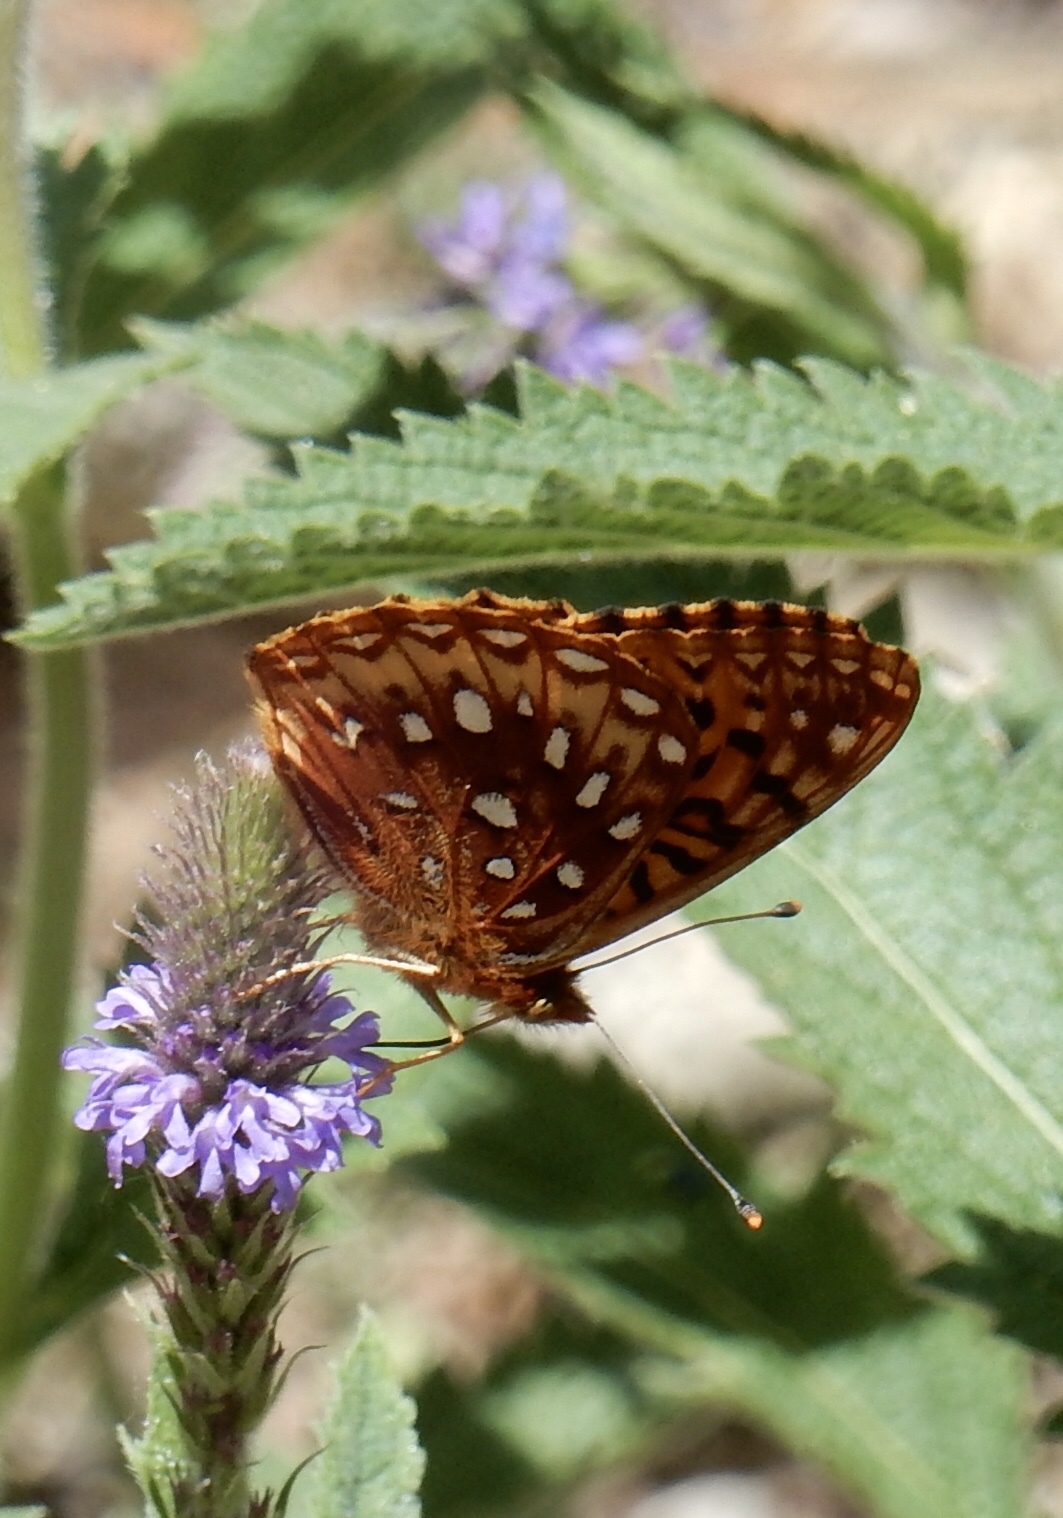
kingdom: Animalia
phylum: Arthropoda
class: Insecta
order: Lepidoptera
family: Nymphalidae
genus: Speyeria
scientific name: Speyeria atlantis
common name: Atlantis fritillary
